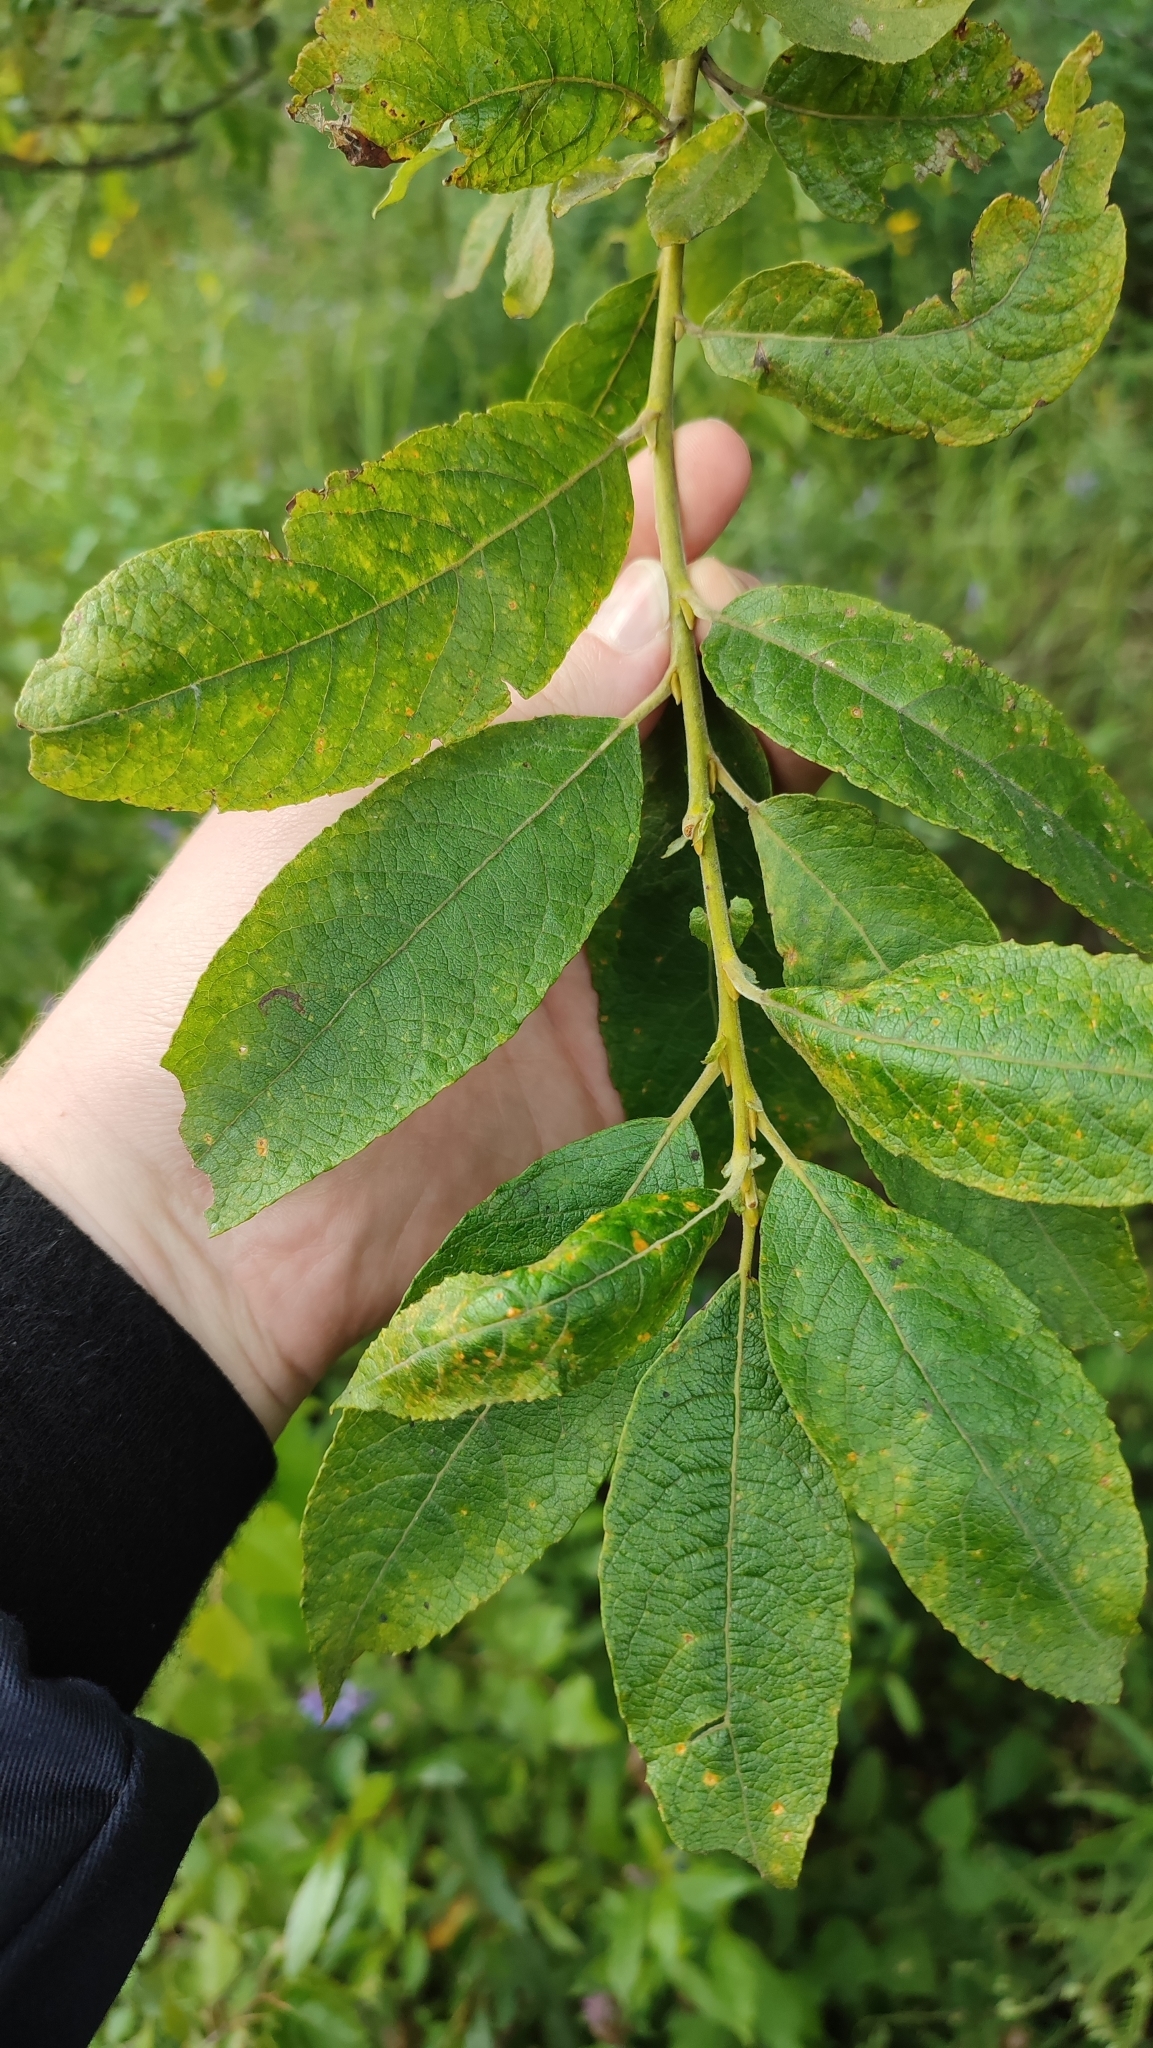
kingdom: Plantae
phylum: Tracheophyta
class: Magnoliopsida
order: Malpighiales
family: Salicaceae
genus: Salix
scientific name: Salix caprea
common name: Goat willow
